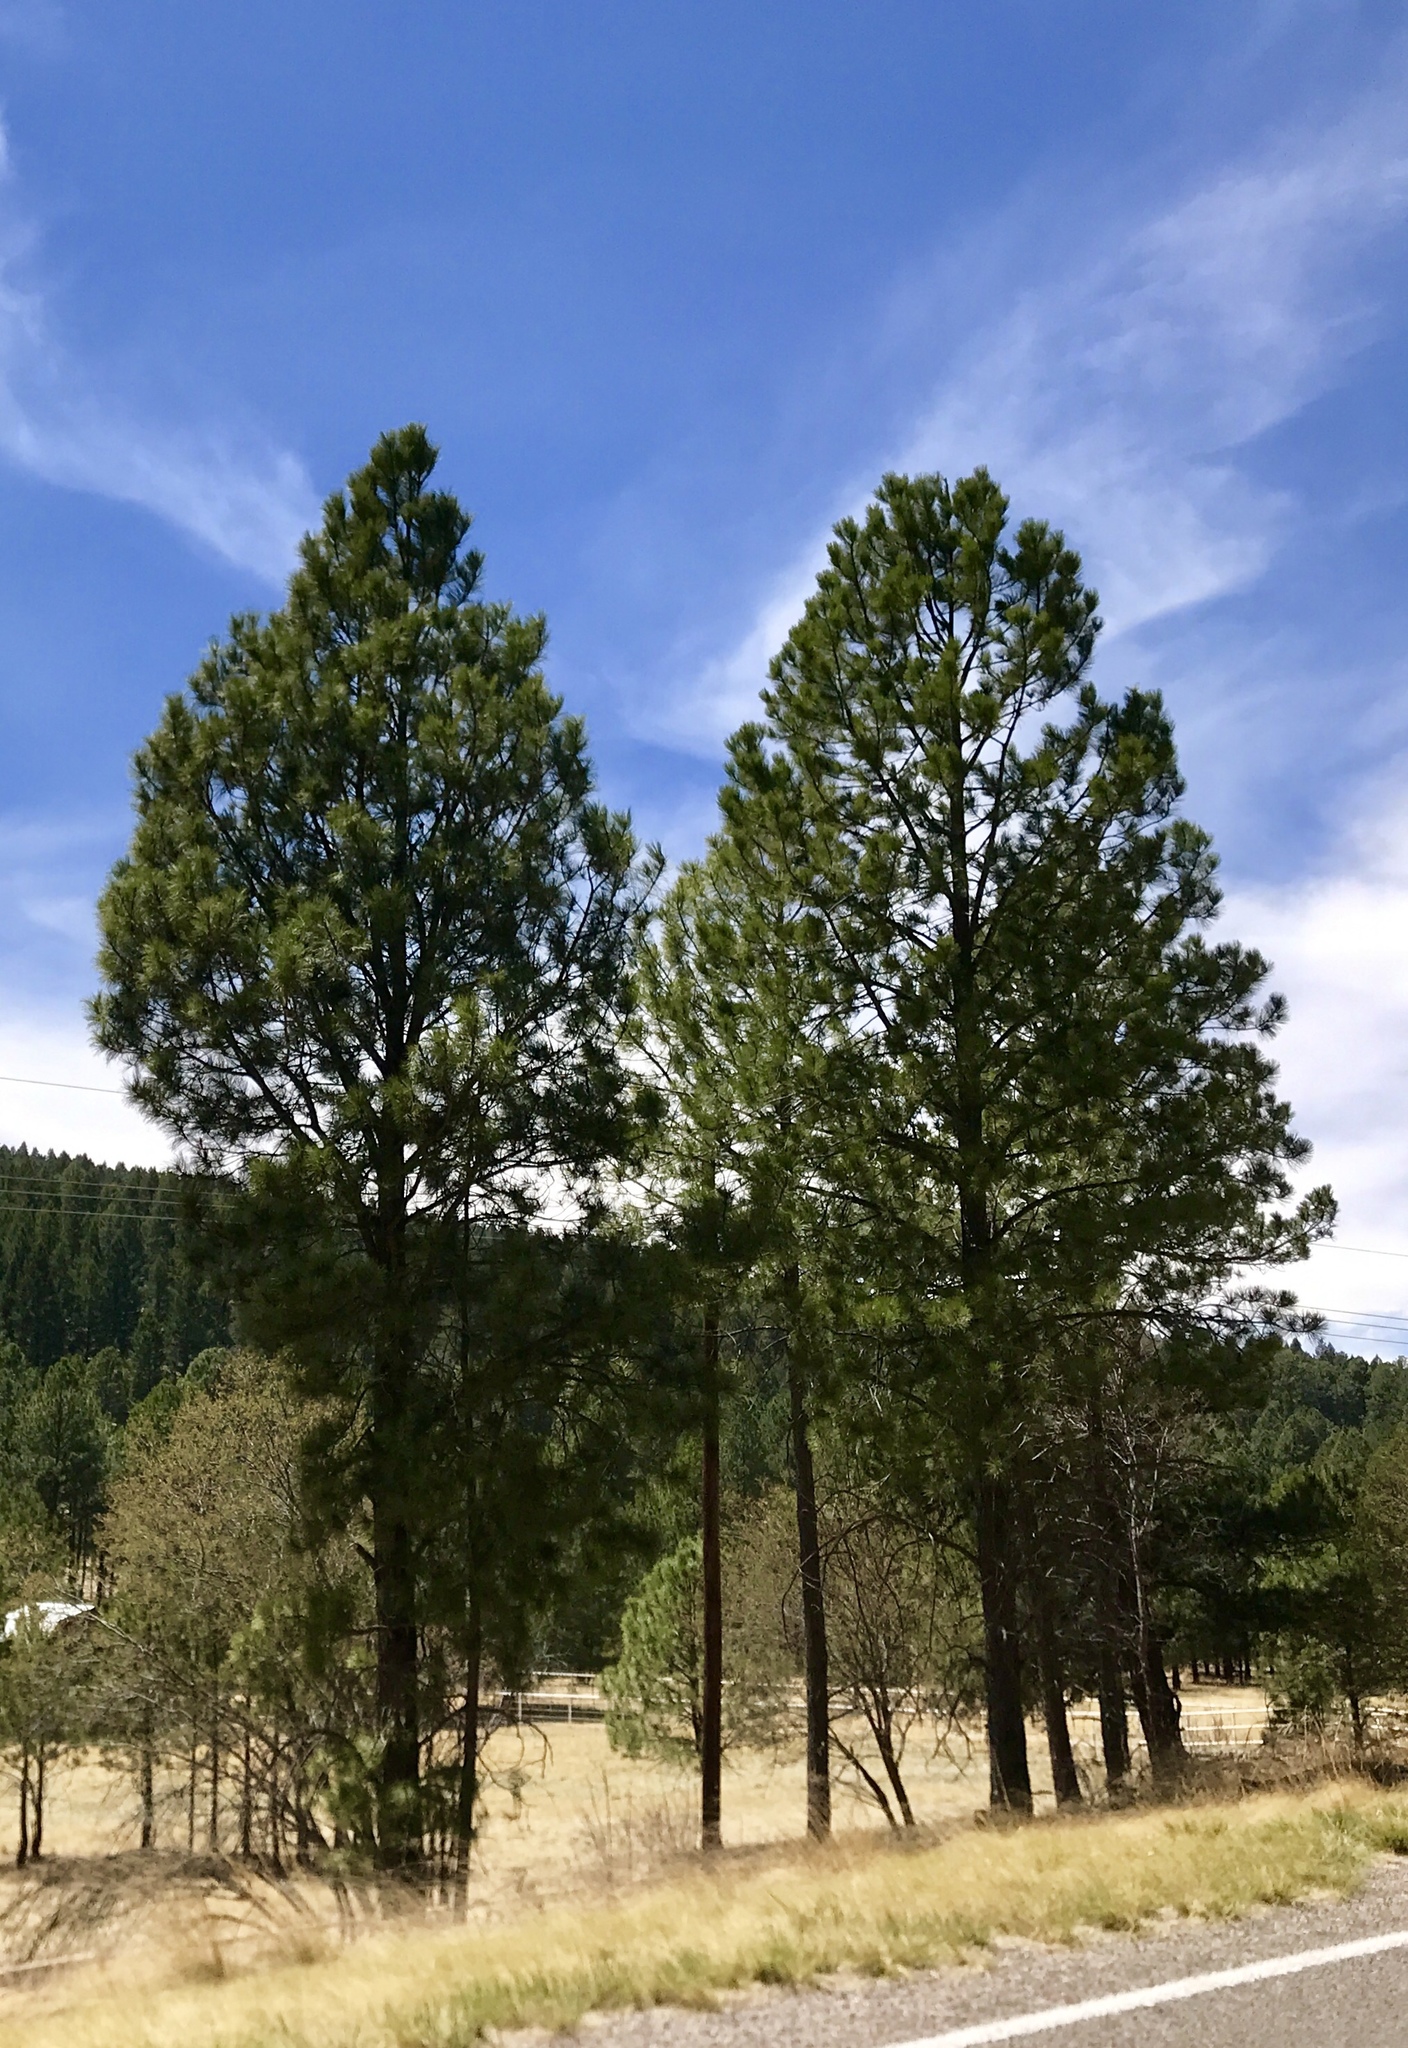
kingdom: Plantae
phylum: Tracheophyta
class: Pinopsida
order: Pinales
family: Pinaceae
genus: Pinus
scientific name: Pinus ponderosa
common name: Western yellow-pine
